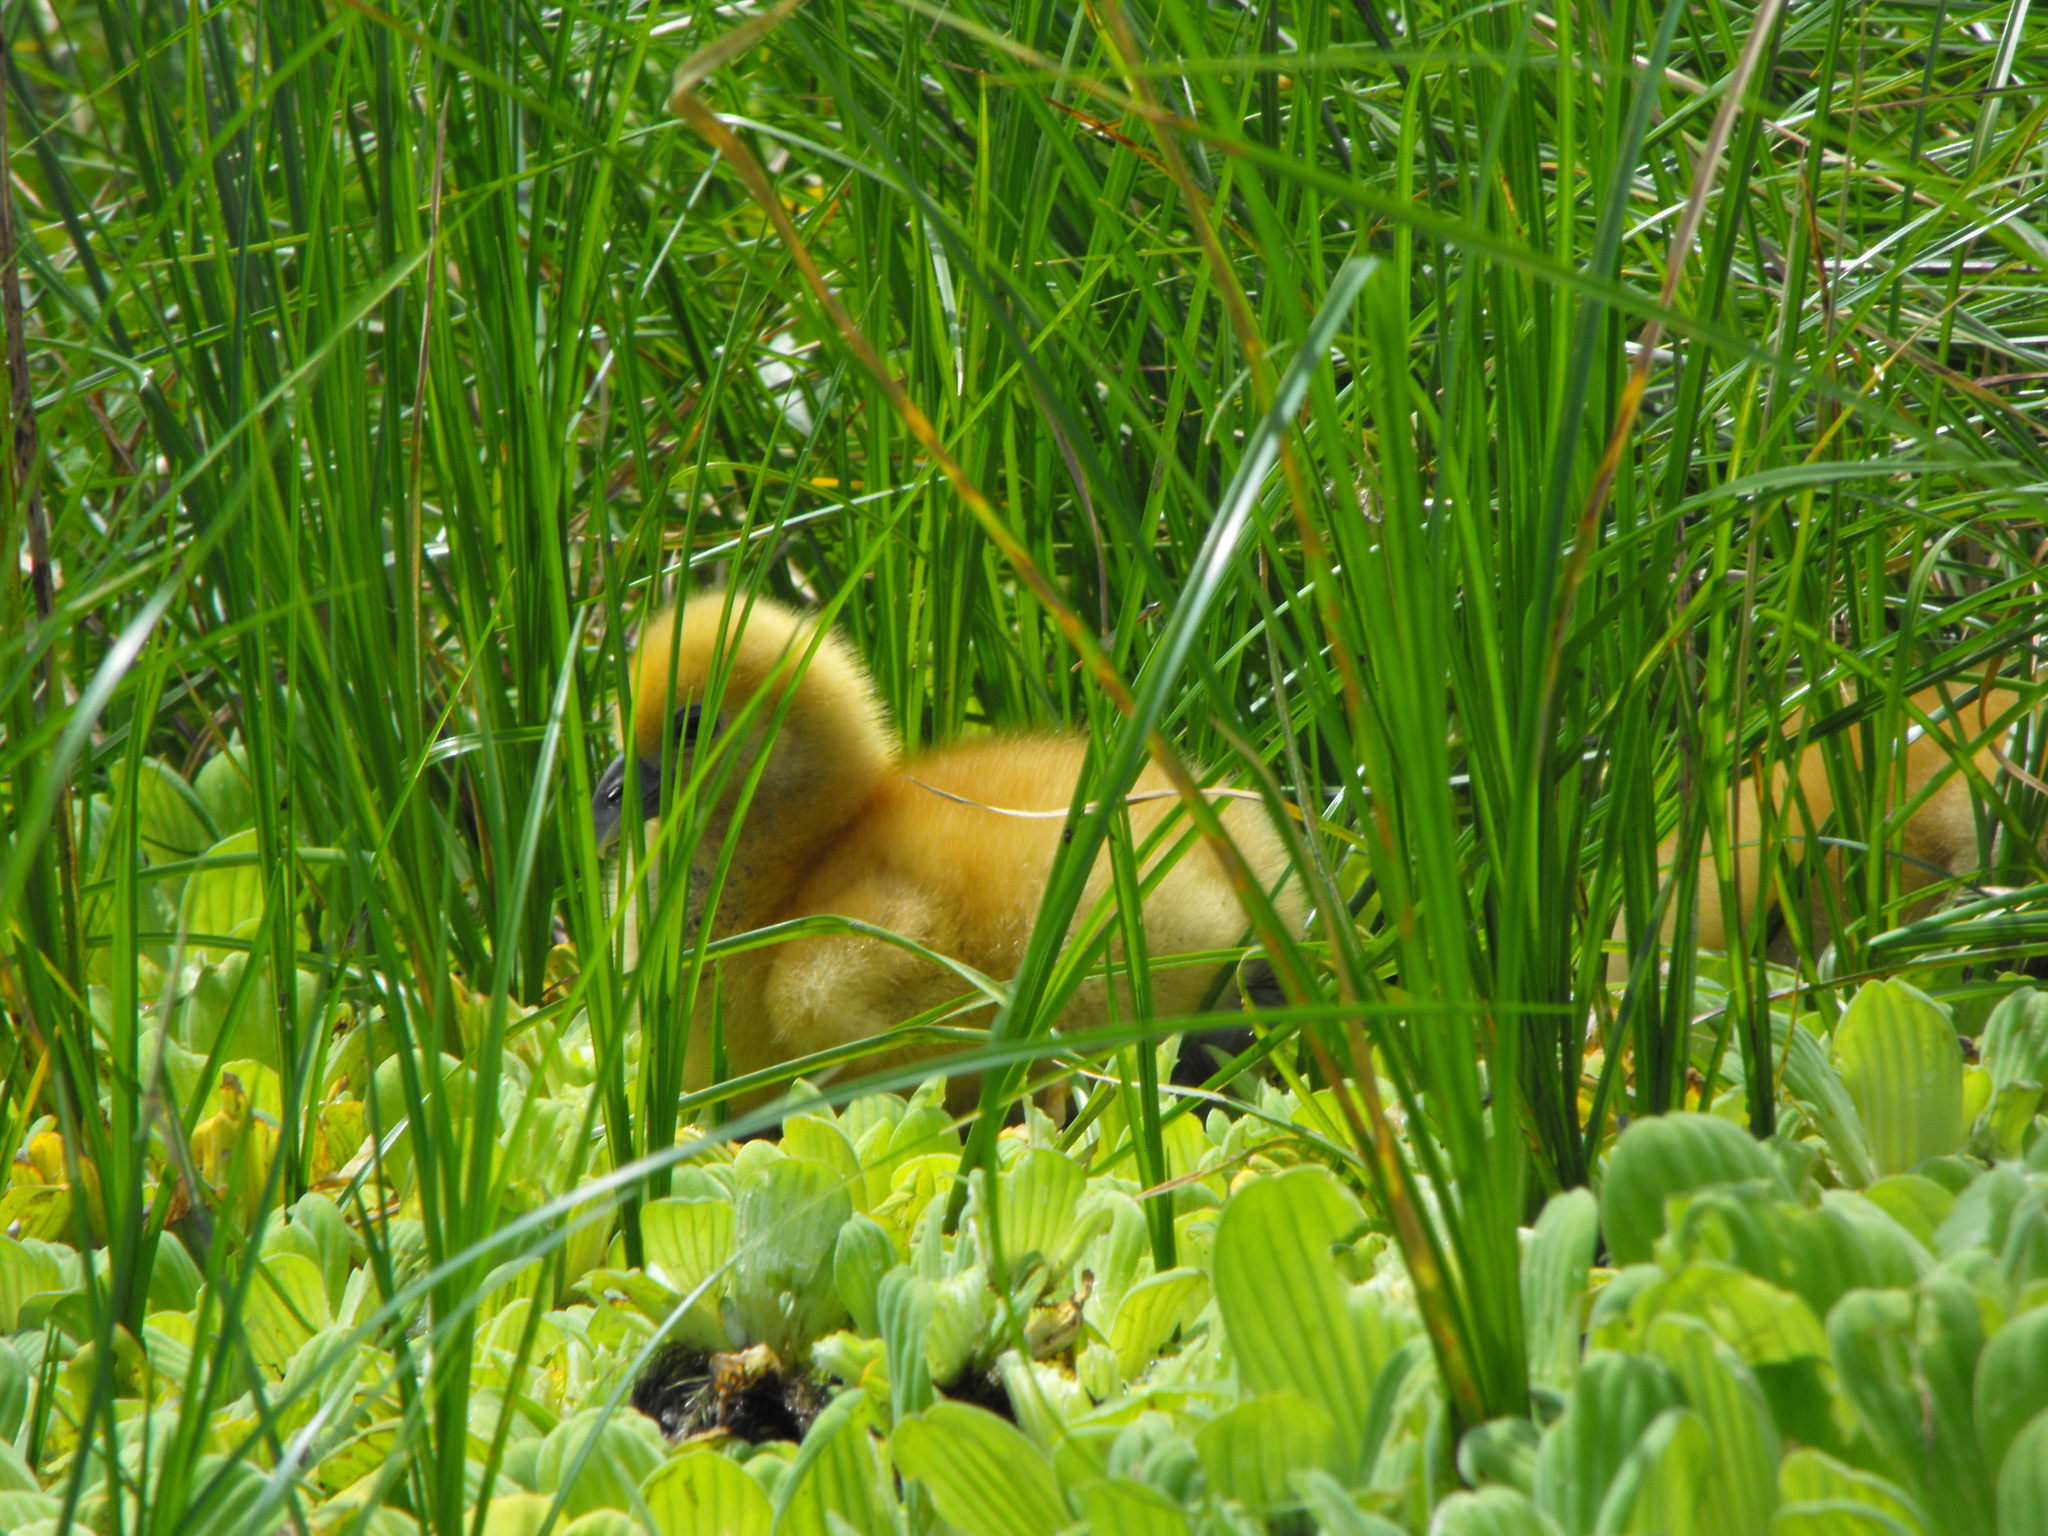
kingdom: Animalia
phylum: Chordata
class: Aves
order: Anseriformes
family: Anhimidae
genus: Anhima
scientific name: Anhima cornuta
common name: Horned screamer
